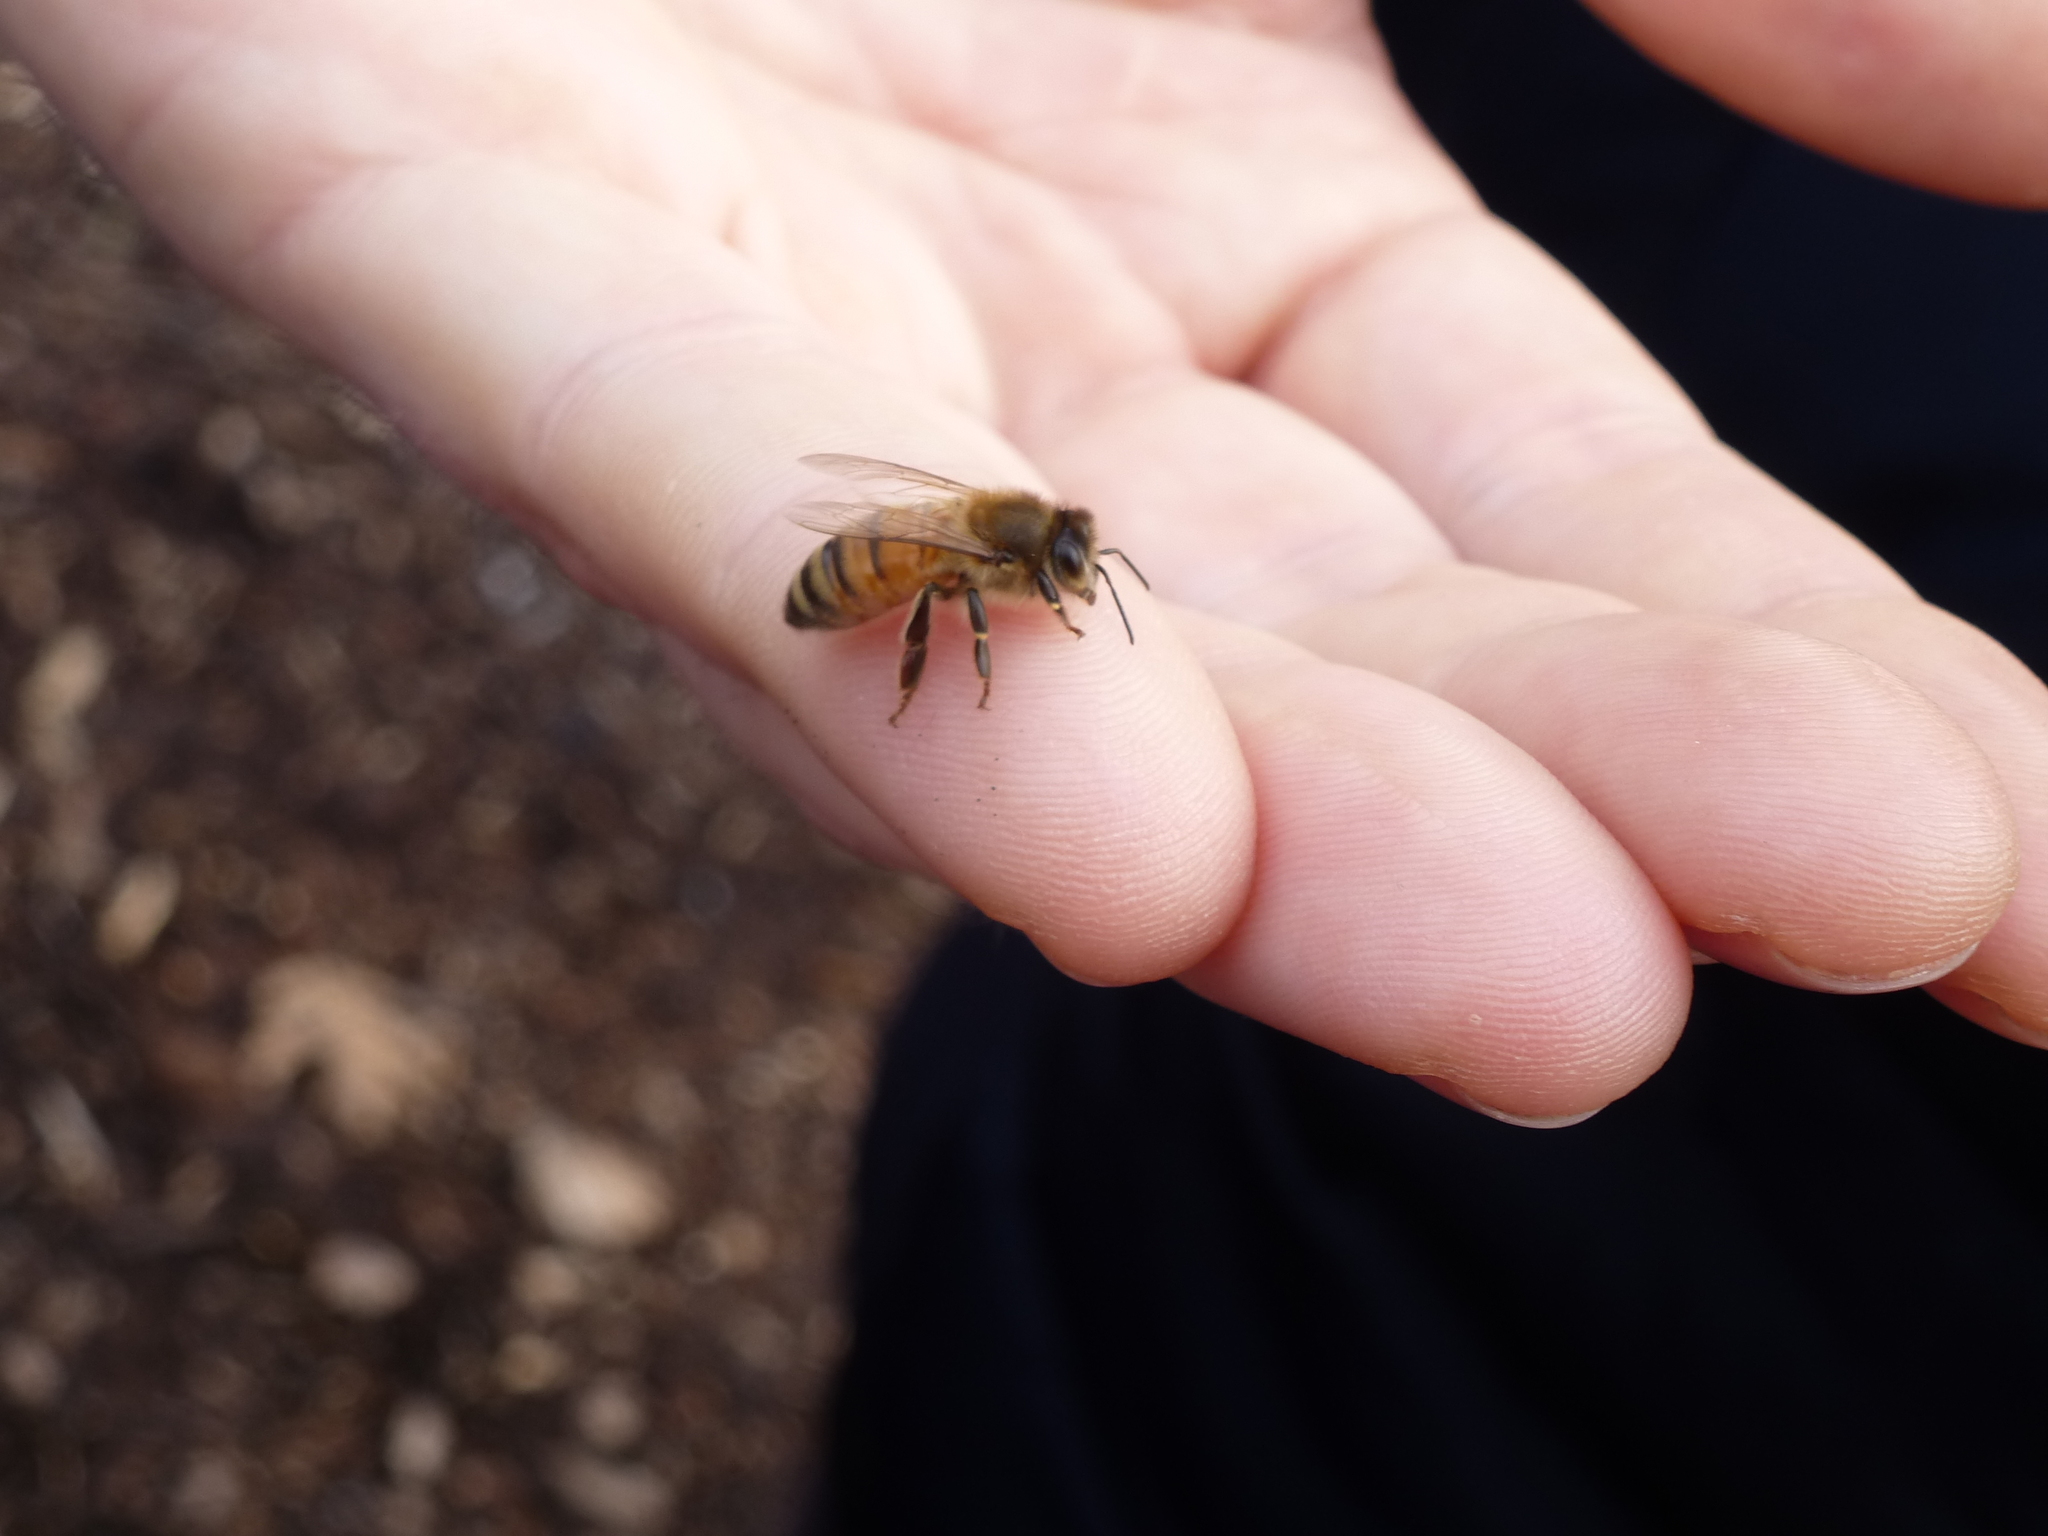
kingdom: Animalia
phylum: Arthropoda
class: Insecta
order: Hymenoptera
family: Apidae
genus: Apis
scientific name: Apis mellifera
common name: Honey bee
